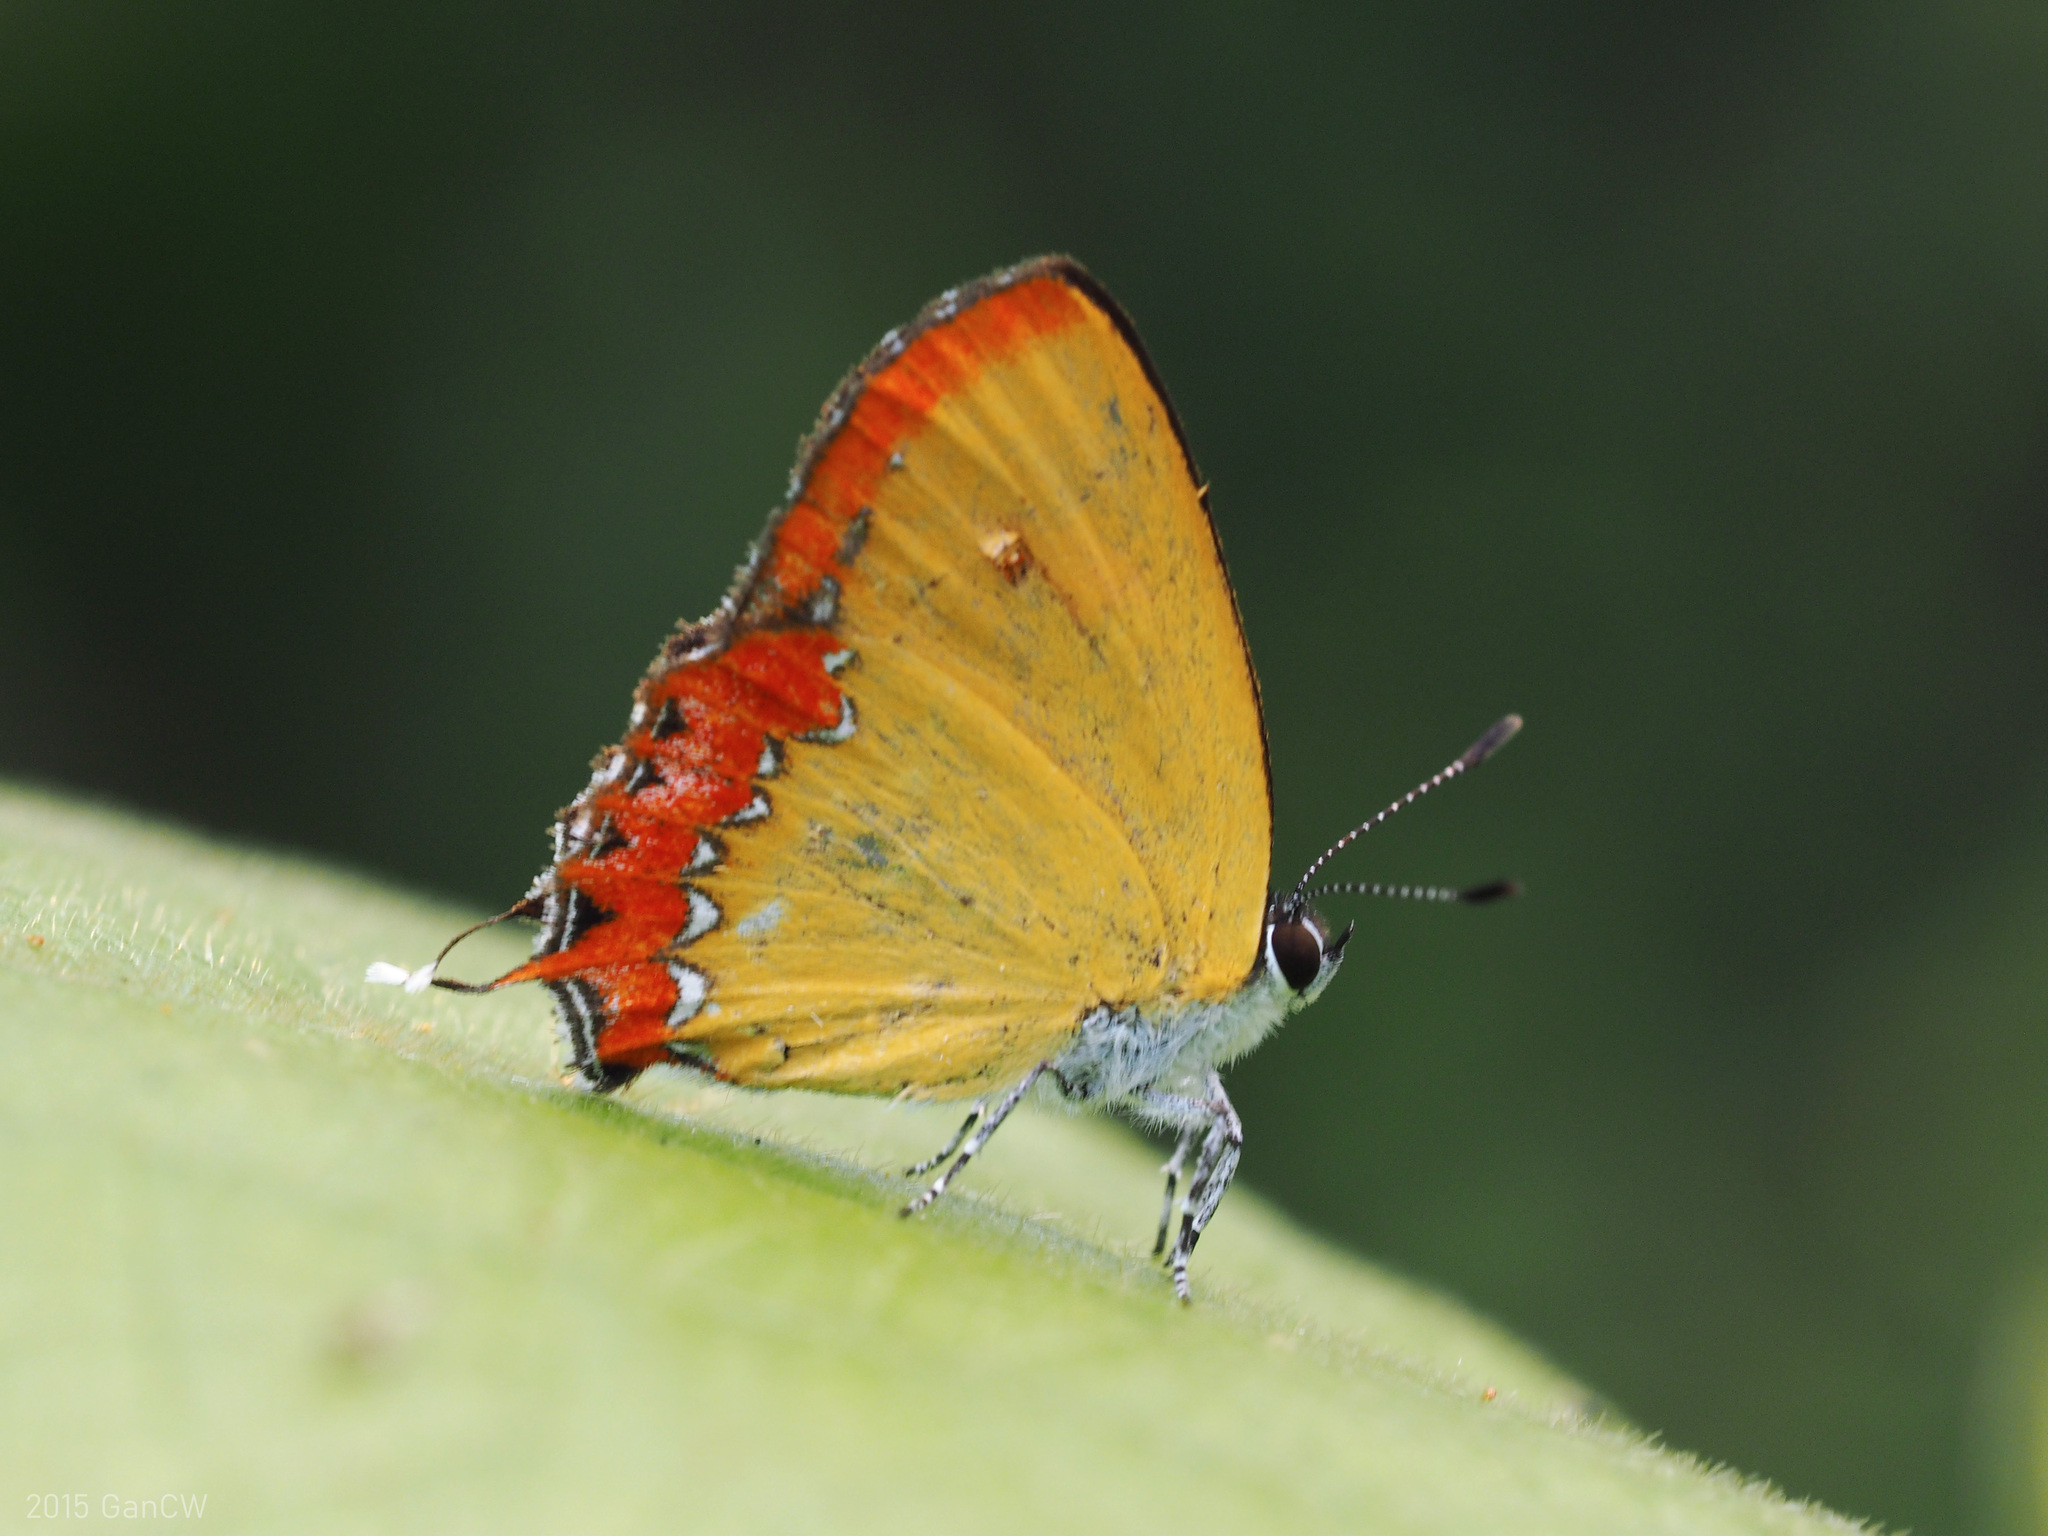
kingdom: Animalia
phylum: Arthropoda
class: Insecta
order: Lepidoptera
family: Lycaenidae
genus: Heliophorus
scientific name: Heliophorus epicles
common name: Purple sapphire
